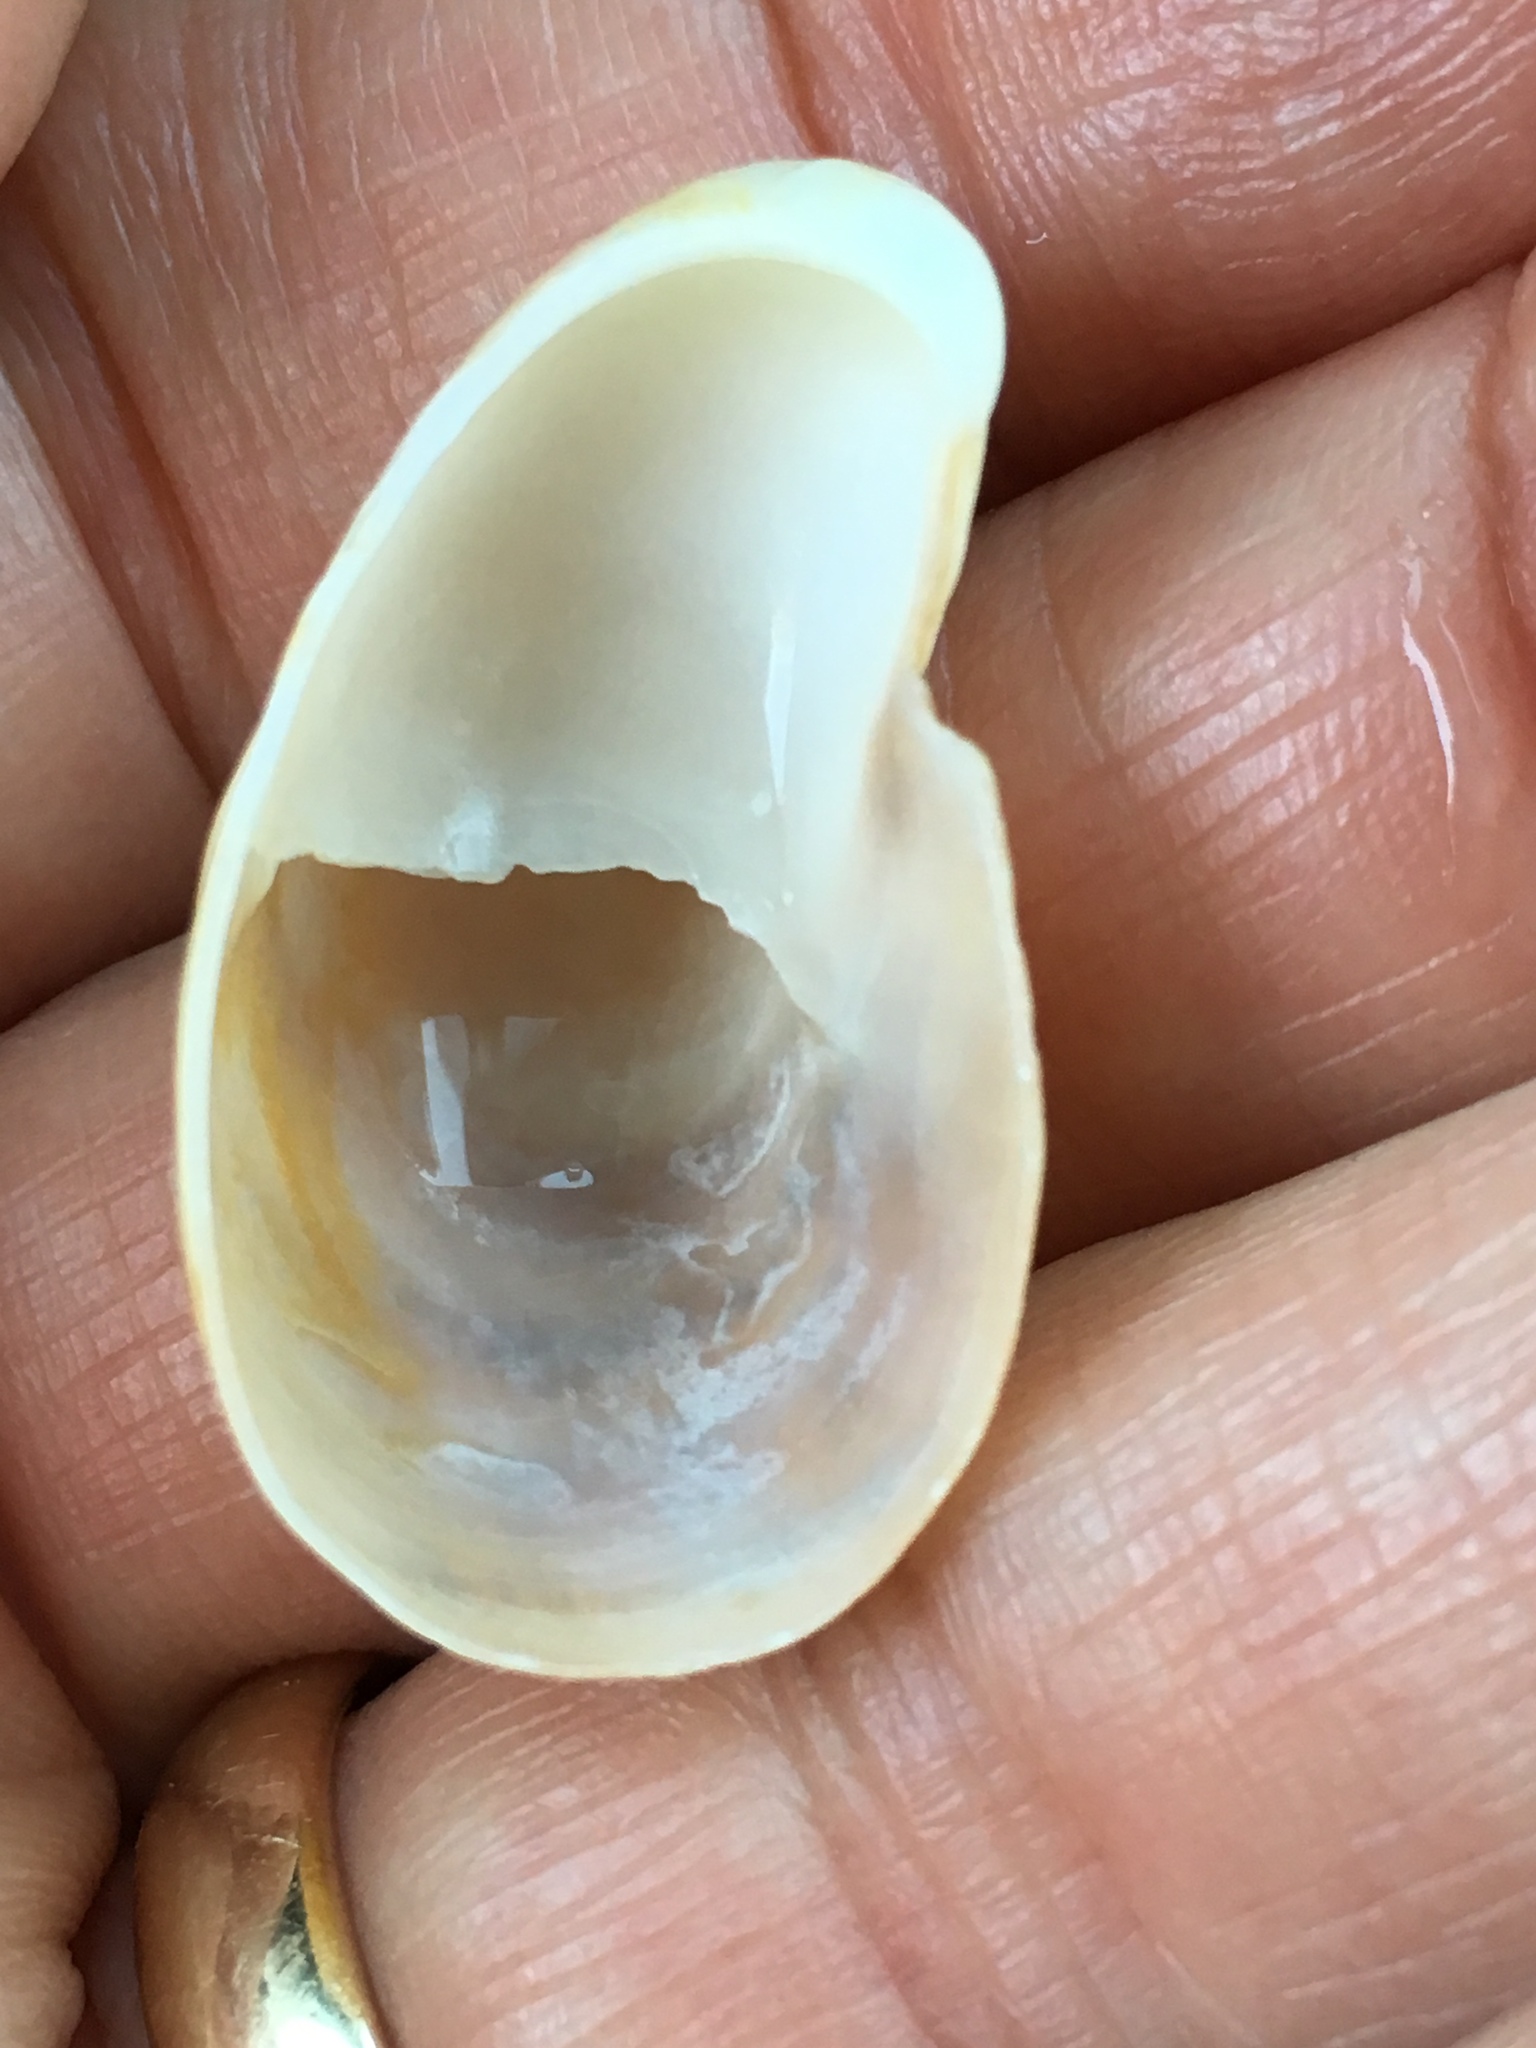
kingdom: Animalia
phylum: Mollusca
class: Gastropoda
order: Littorinimorpha
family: Calyptraeidae
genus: Crepidula
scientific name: Crepidula fornicata
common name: Slipper limpet
